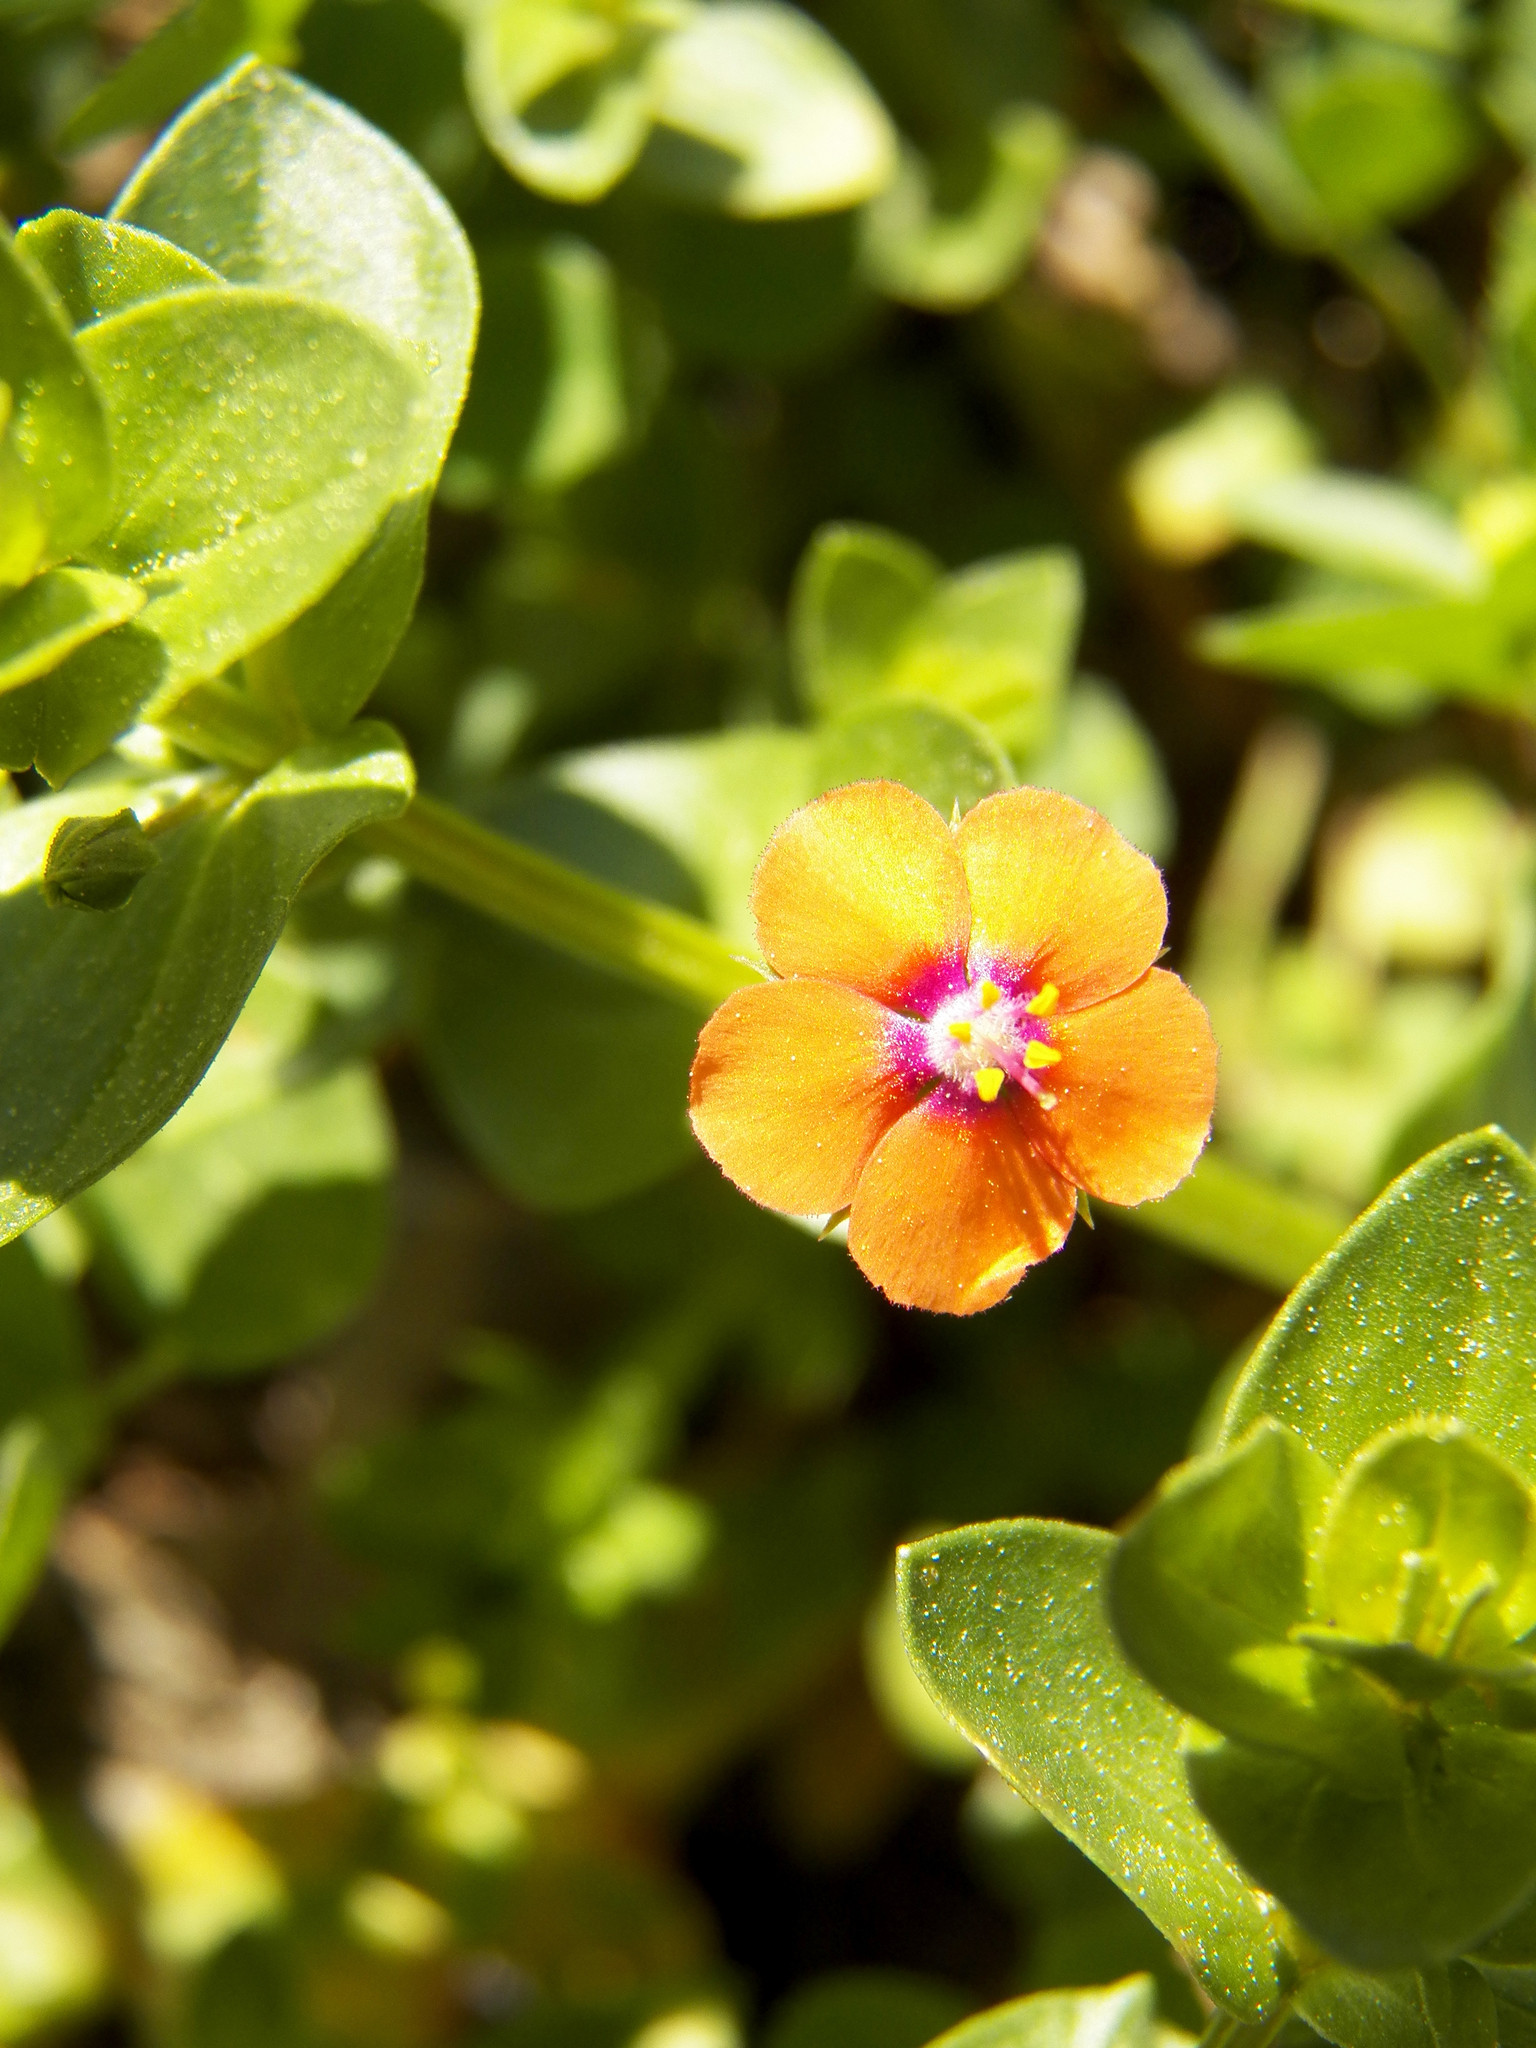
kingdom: Plantae
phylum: Tracheophyta
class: Magnoliopsida
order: Ericales
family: Primulaceae
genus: Lysimachia
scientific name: Lysimachia arvensis
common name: Scarlet pimpernel
